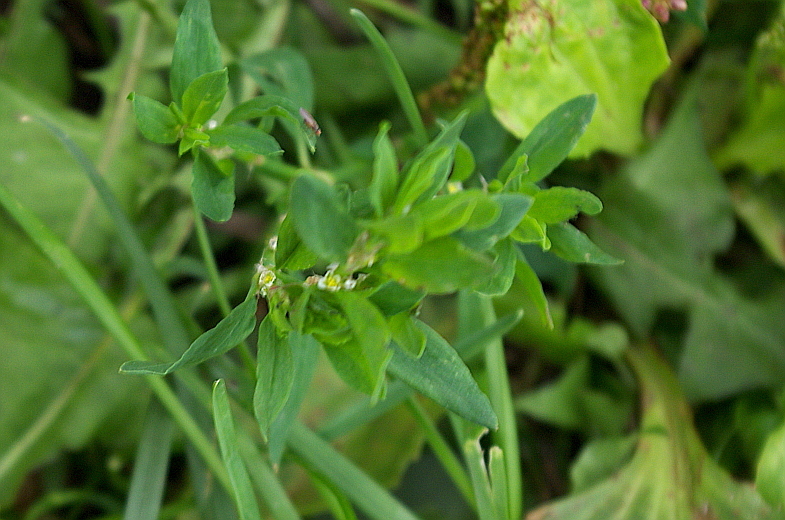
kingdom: Plantae
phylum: Tracheophyta
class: Magnoliopsida
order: Caryophyllales
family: Polygonaceae
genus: Polygonum
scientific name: Polygonum
